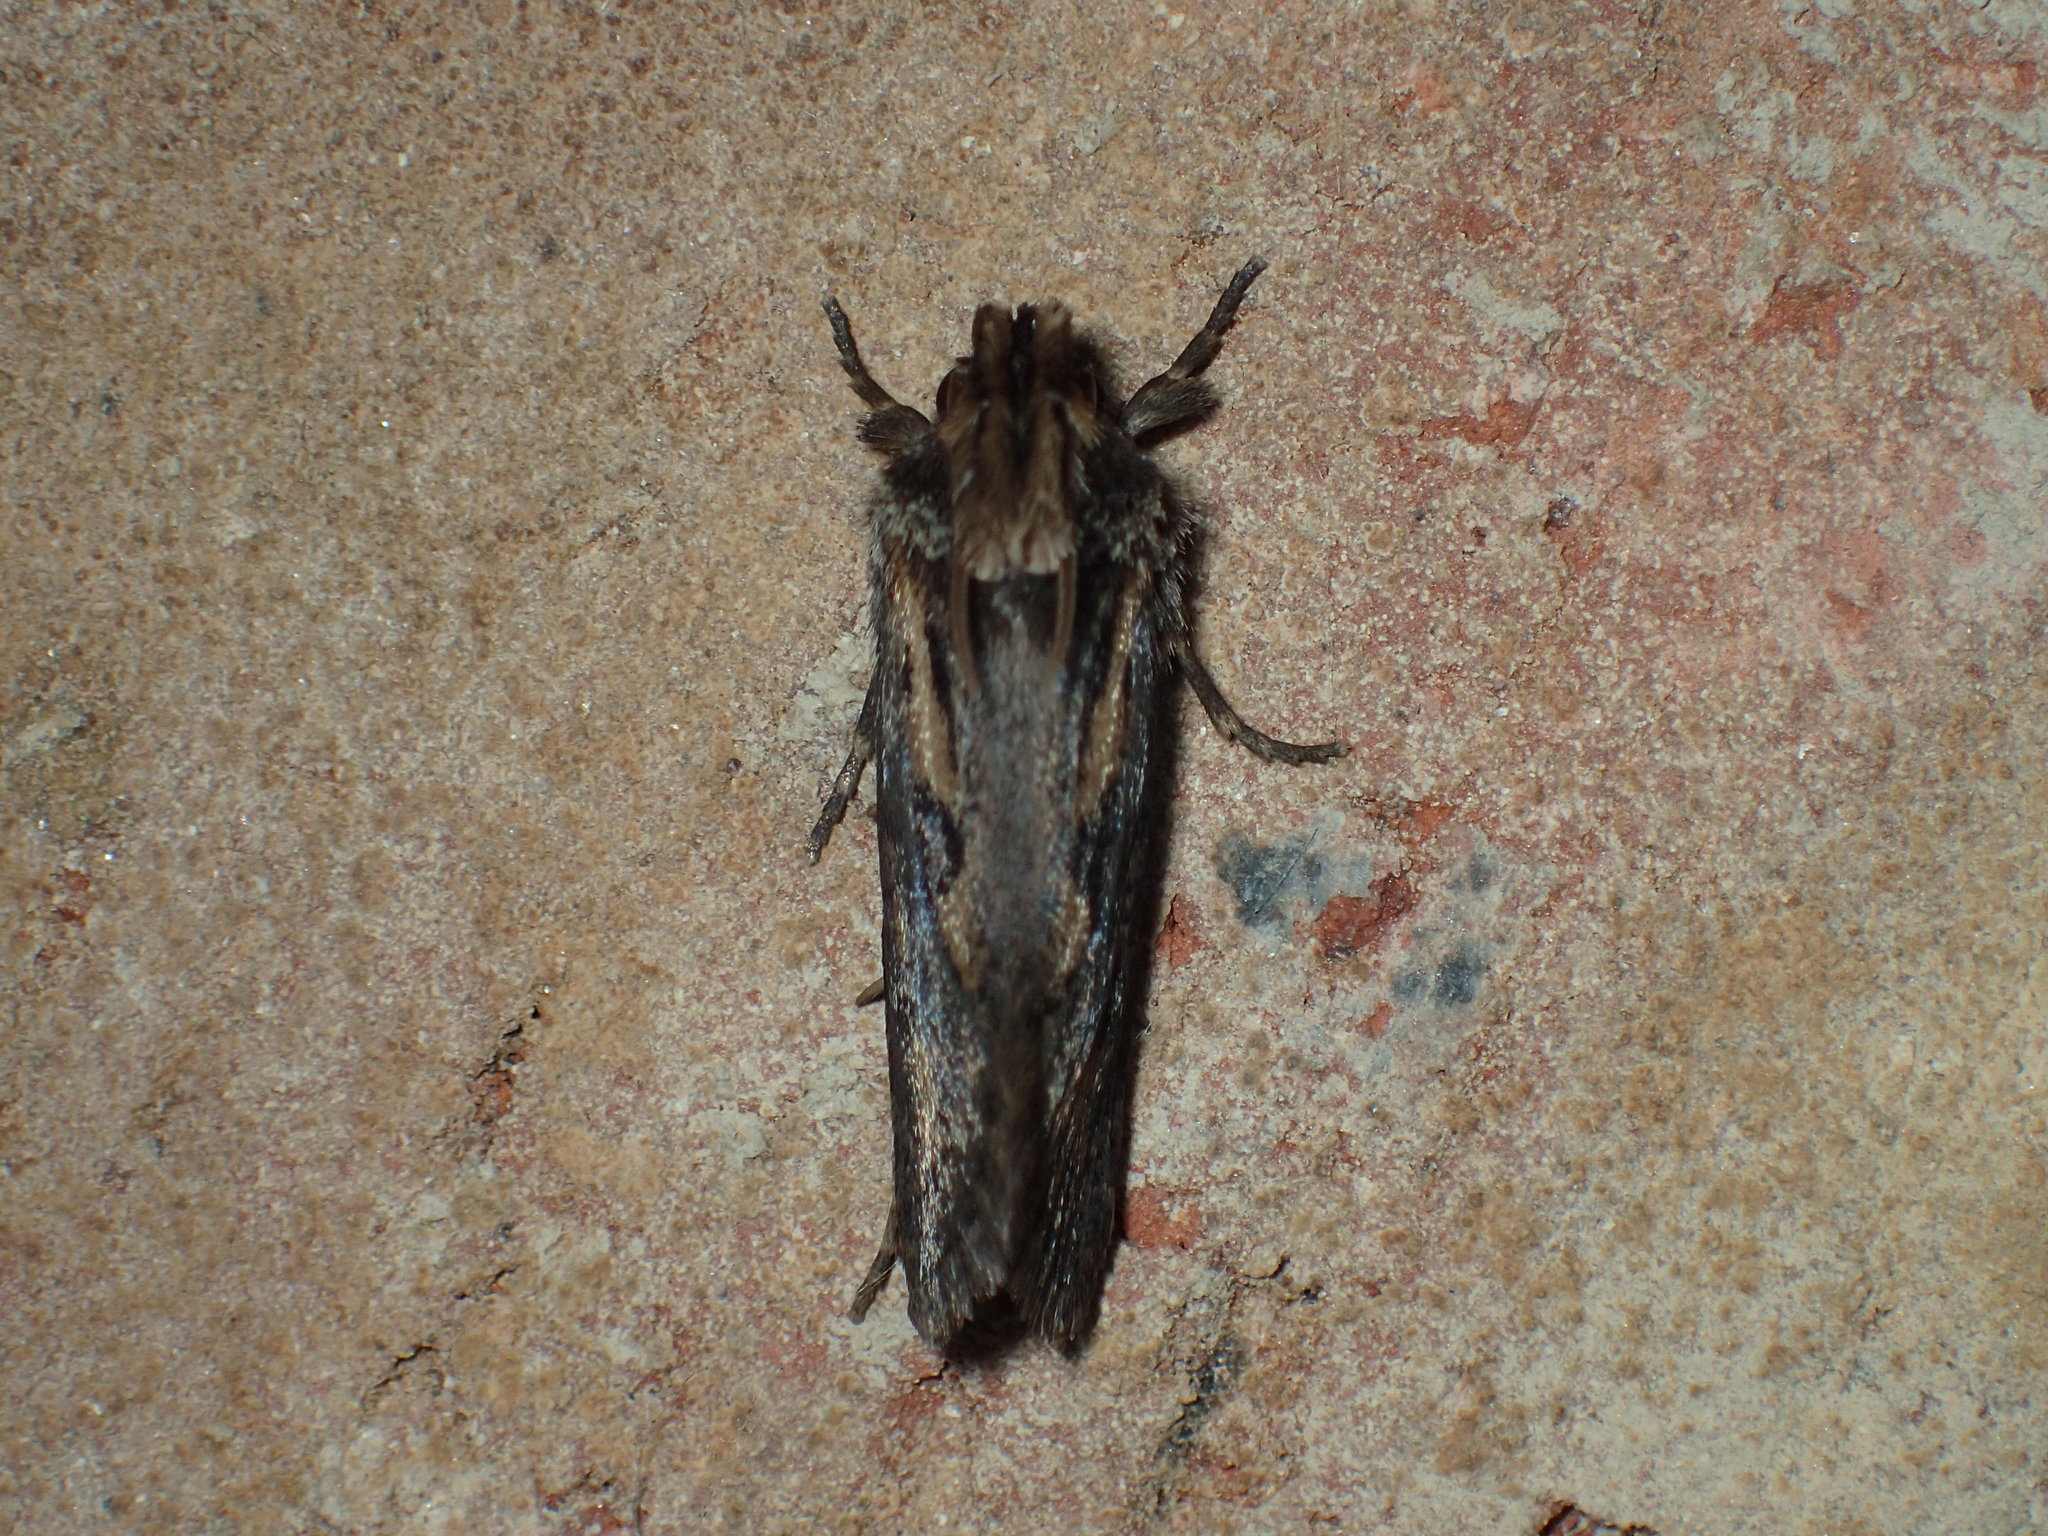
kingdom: Animalia
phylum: Arthropoda
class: Insecta
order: Lepidoptera
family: Tineidae
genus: Acrolophus
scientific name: Acrolophus popeanella
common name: Clemens' grass tubeworm moth
